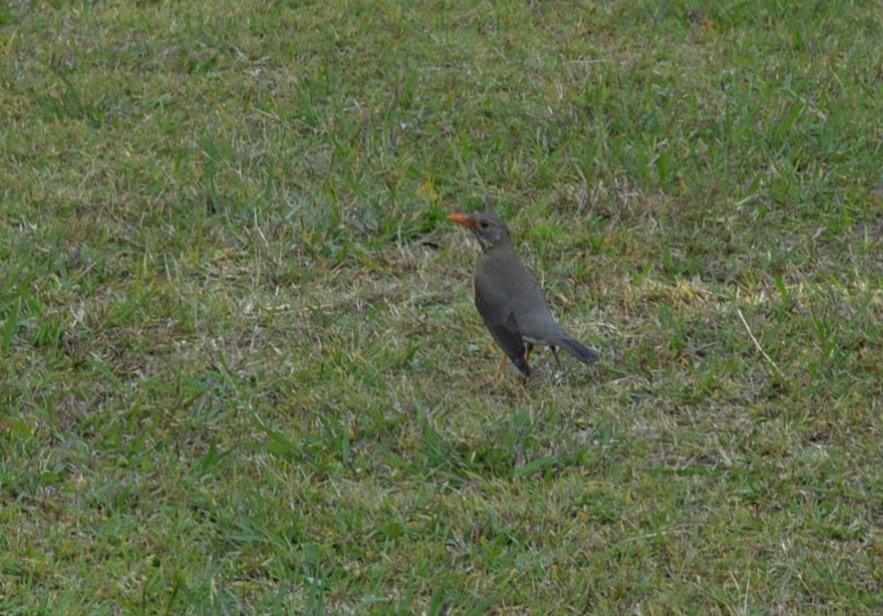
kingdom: Animalia
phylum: Chordata
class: Aves
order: Passeriformes
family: Turdidae
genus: Turdus
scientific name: Turdus libonyana
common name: Kurrichane thrush
